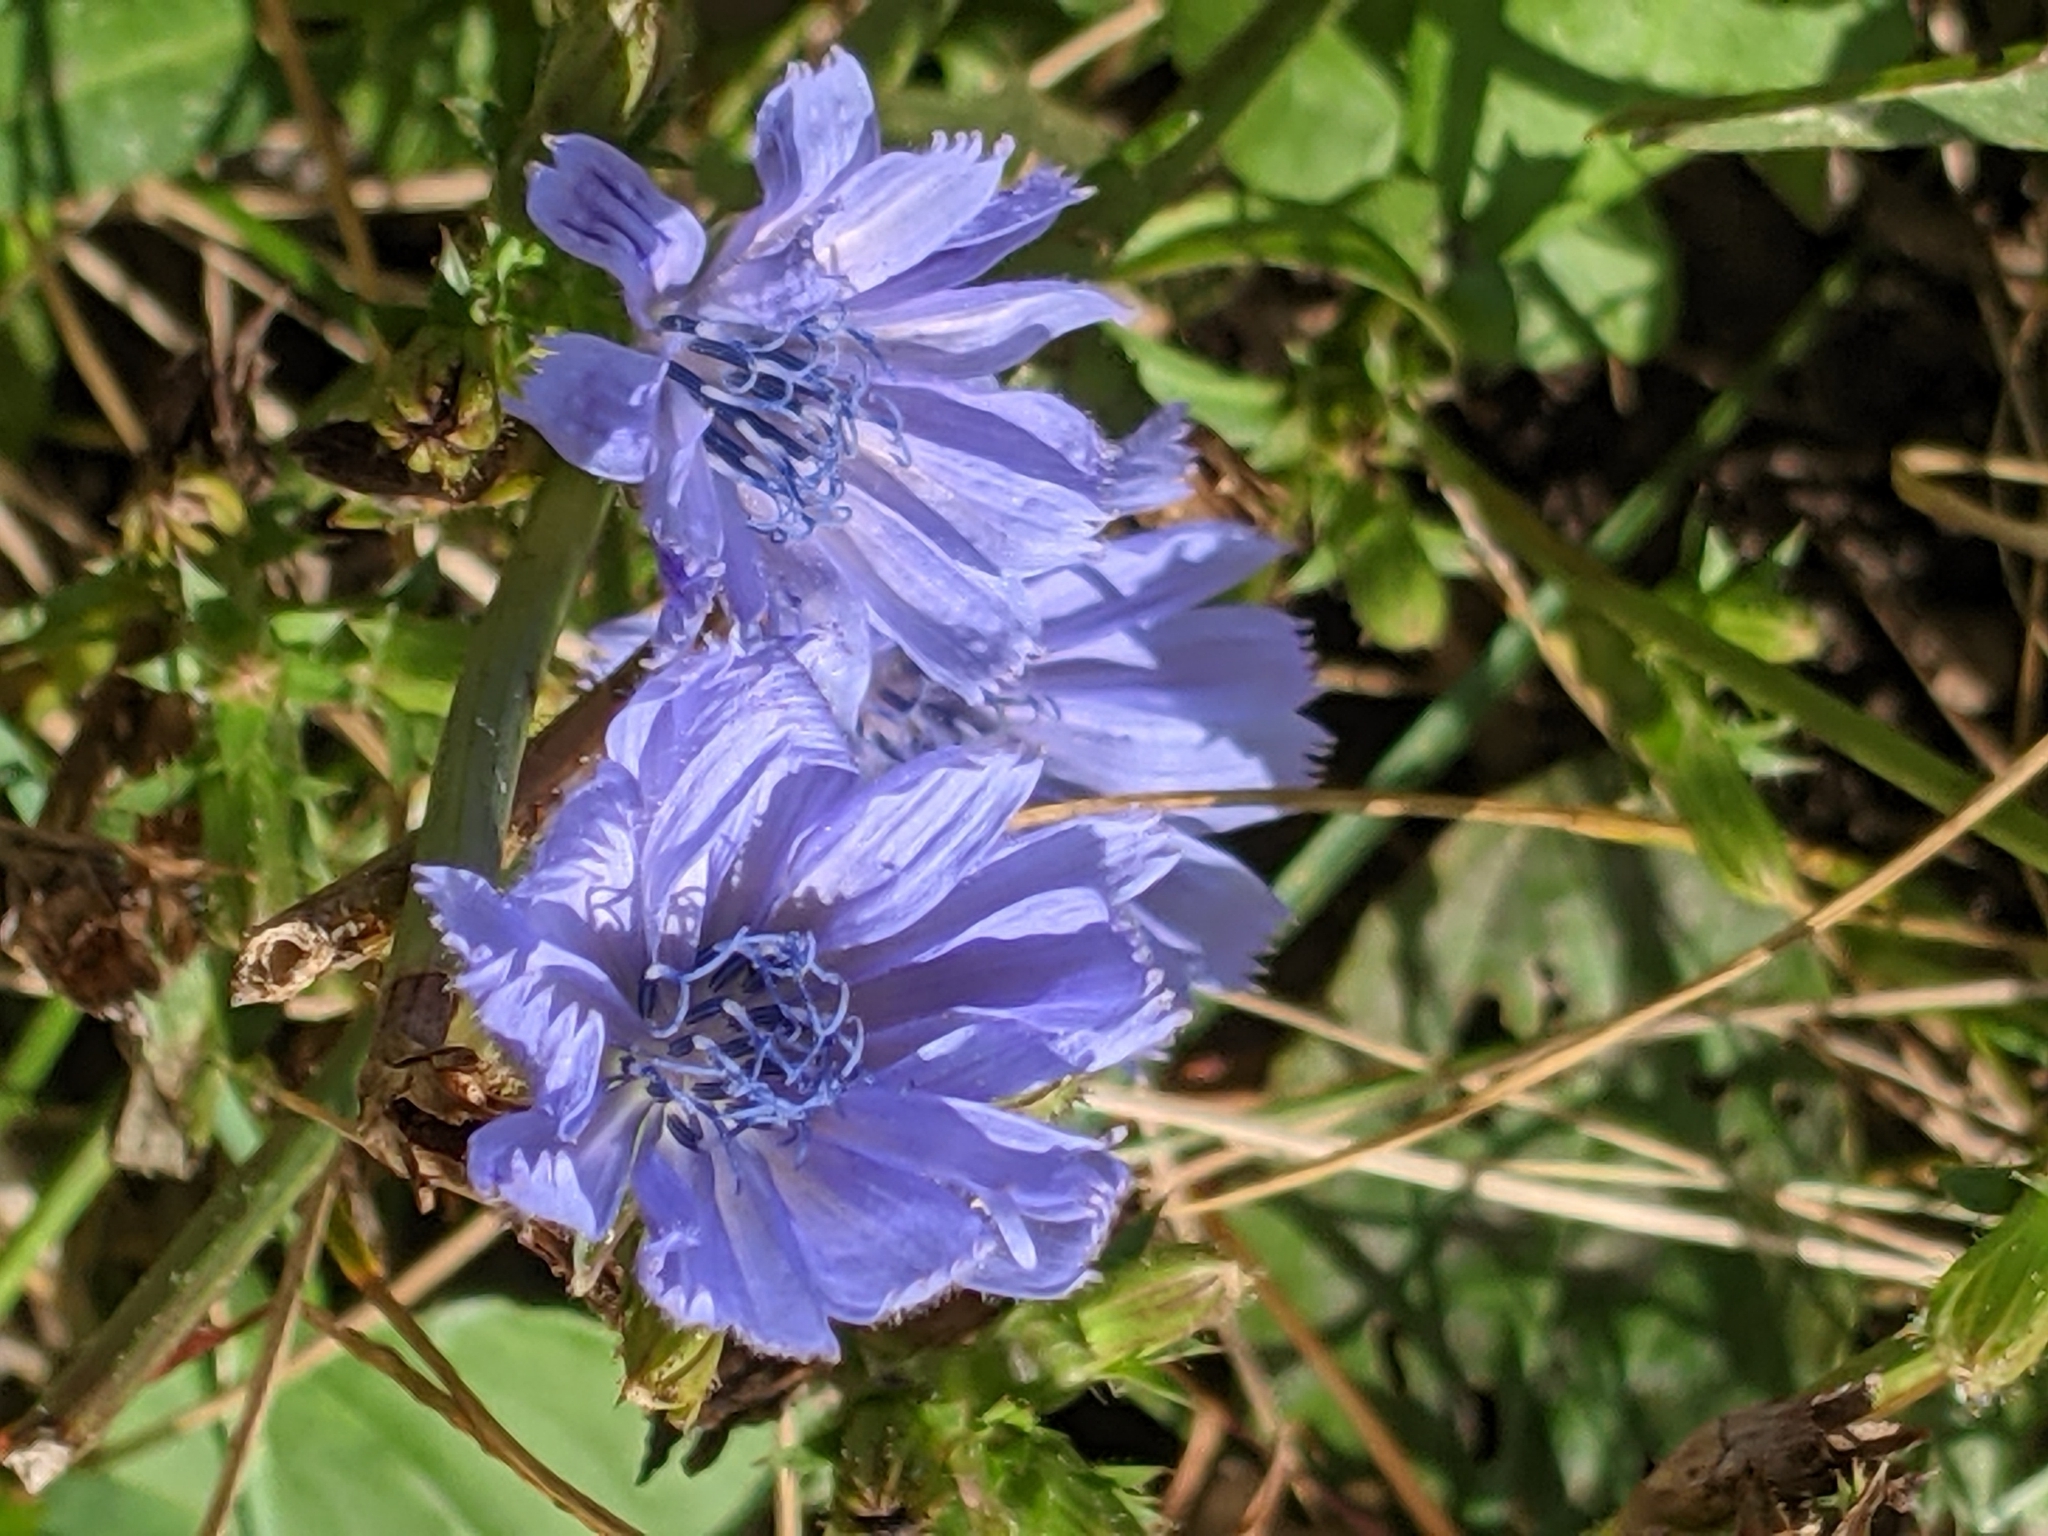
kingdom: Plantae
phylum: Tracheophyta
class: Magnoliopsida
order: Asterales
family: Asteraceae
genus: Cichorium
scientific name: Cichorium intybus
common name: Chicory
